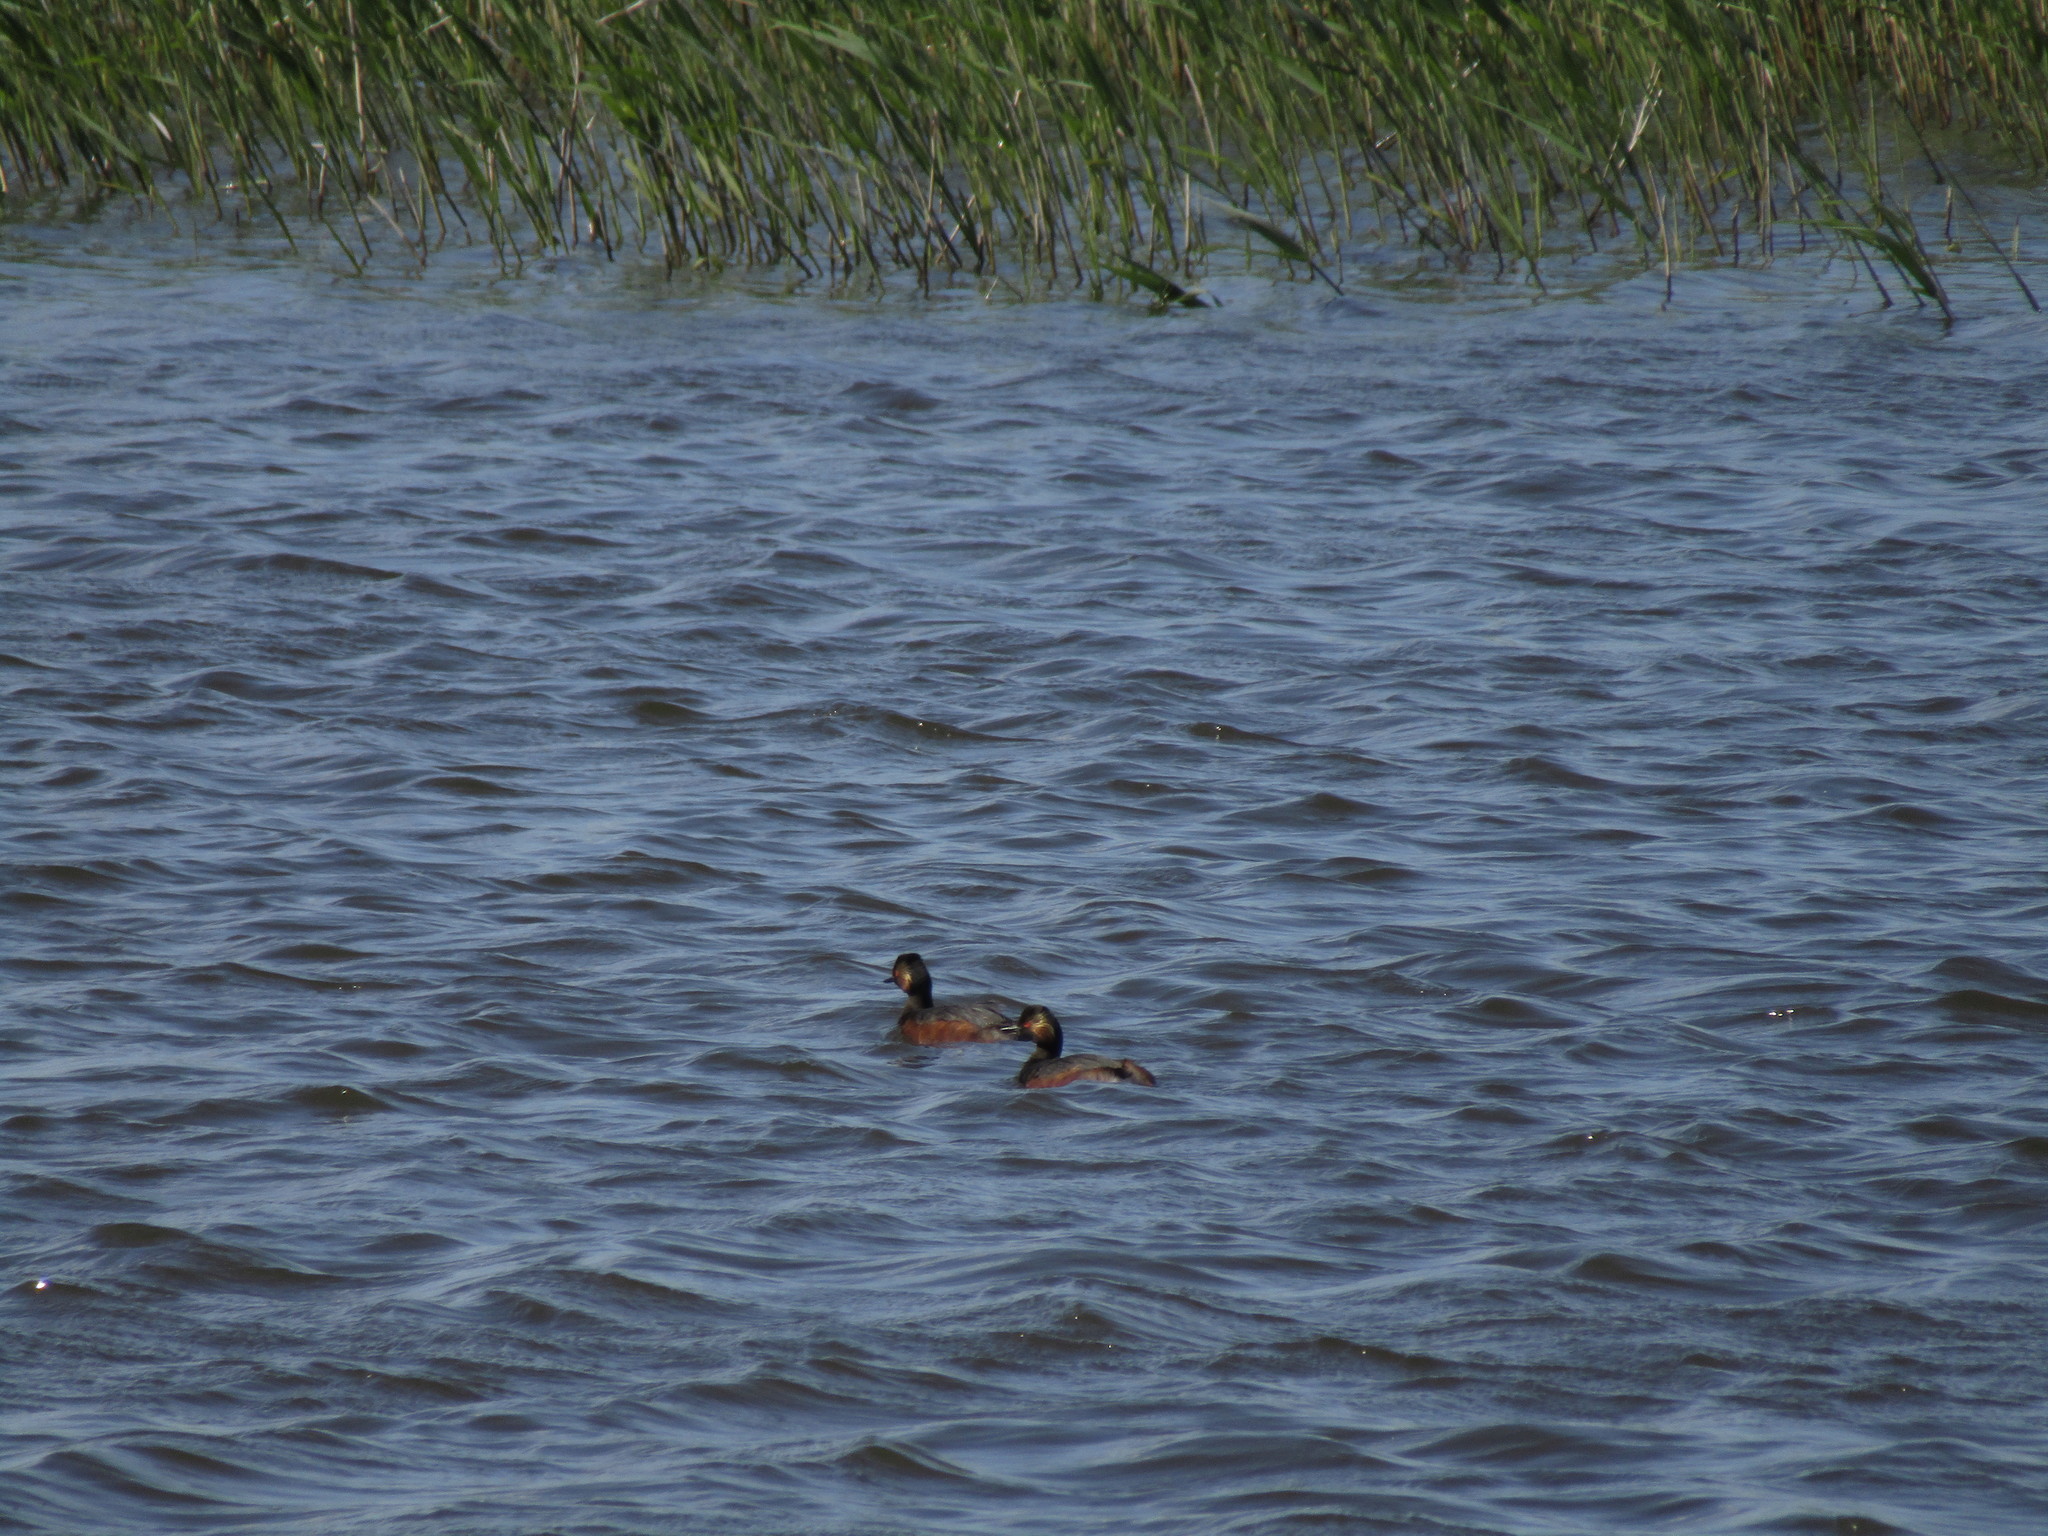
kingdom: Animalia
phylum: Chordata
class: Aves
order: Podicipediformes
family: Podicipedidae
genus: Podiceps
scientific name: Podiceps nigricollis
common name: Black-necked grebe
